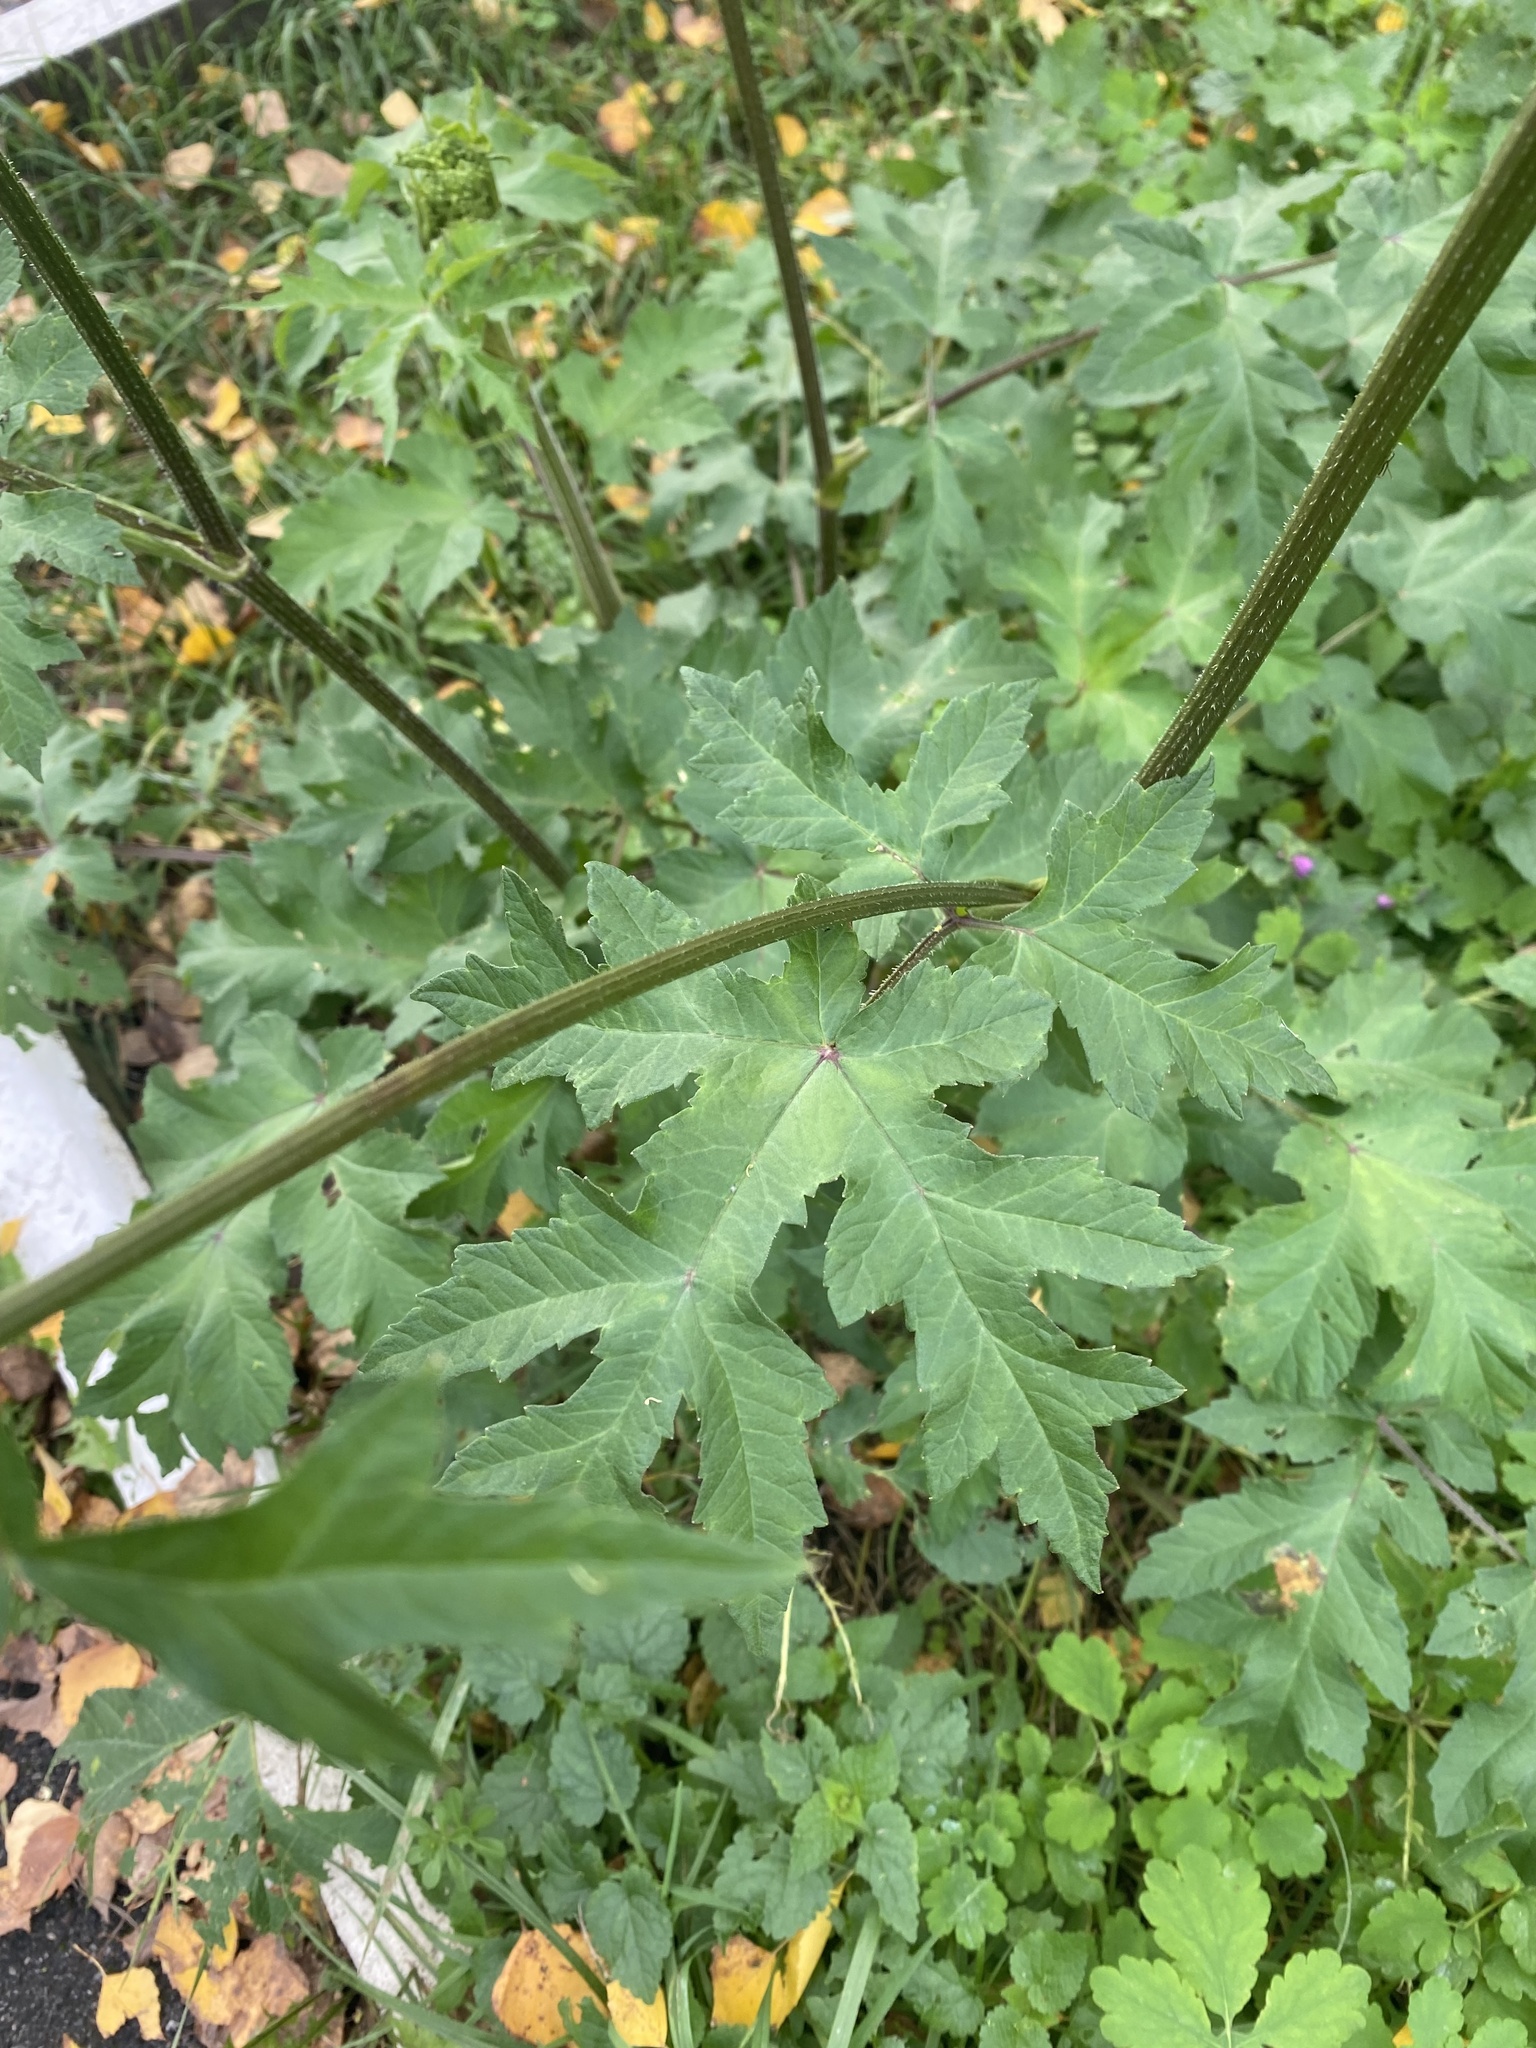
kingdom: Plantae
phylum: Tracheophyta
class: Magnoliopsida
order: Apiales
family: Apiaceae
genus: Heracleum
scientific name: Heracleum sphondylium
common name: Hogweed
